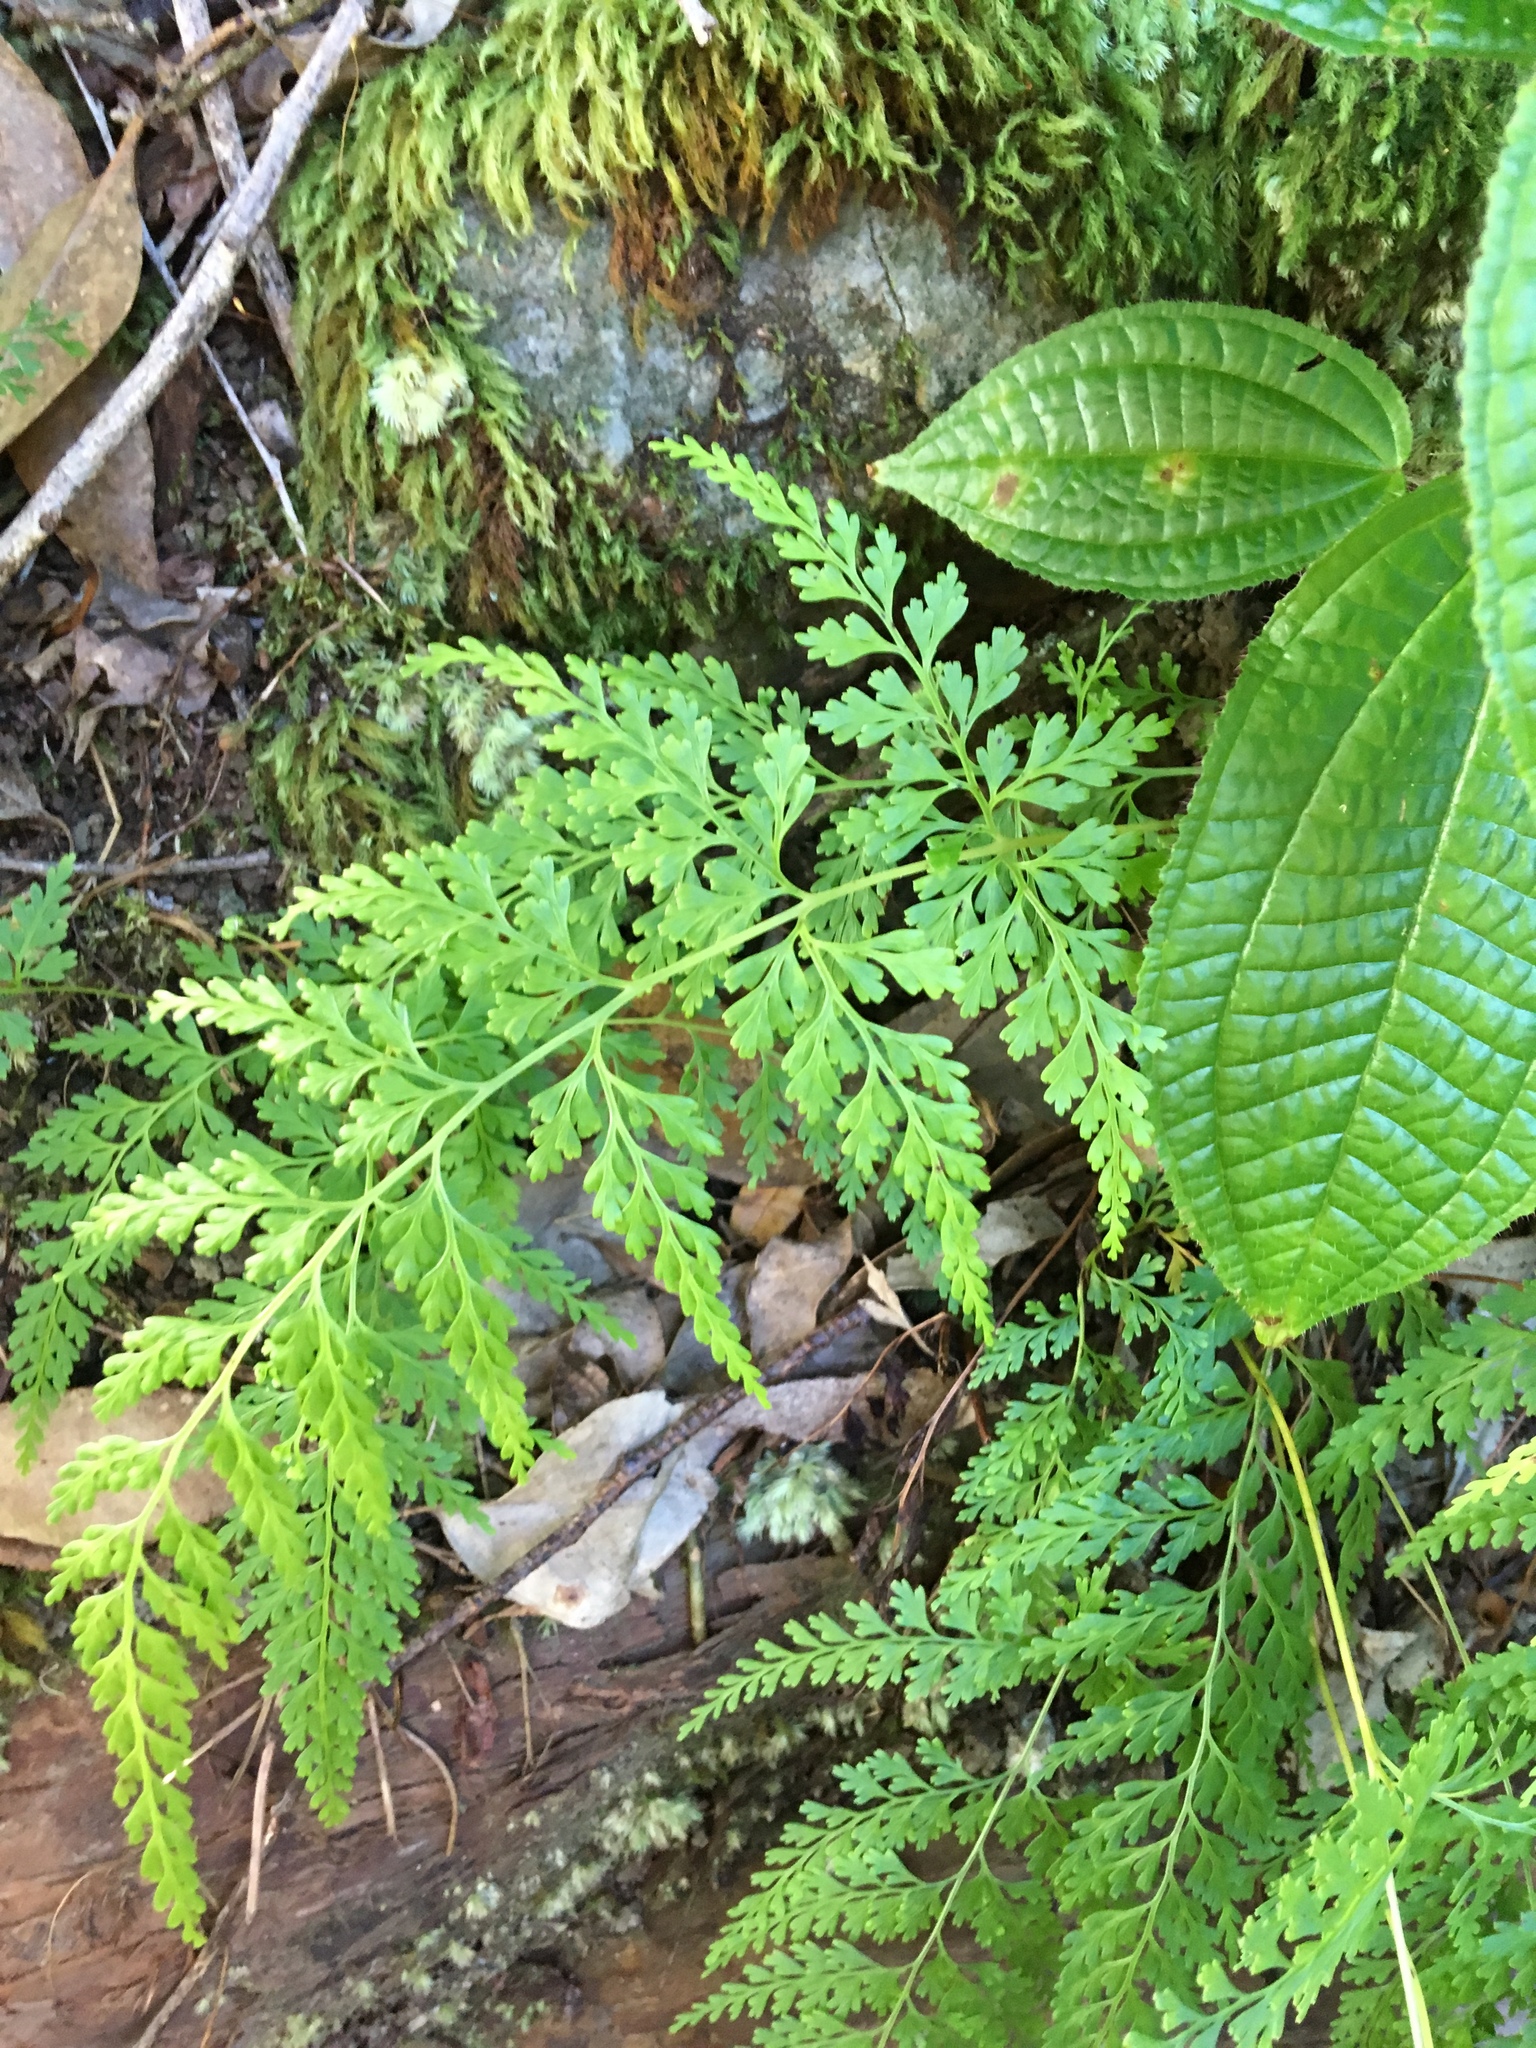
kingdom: Plantae
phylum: Tracheophyta
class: Polypodiopsida
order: Polypodiales
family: Lindsaeaceae
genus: Odontosoria
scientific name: Odontosoria chinensis
